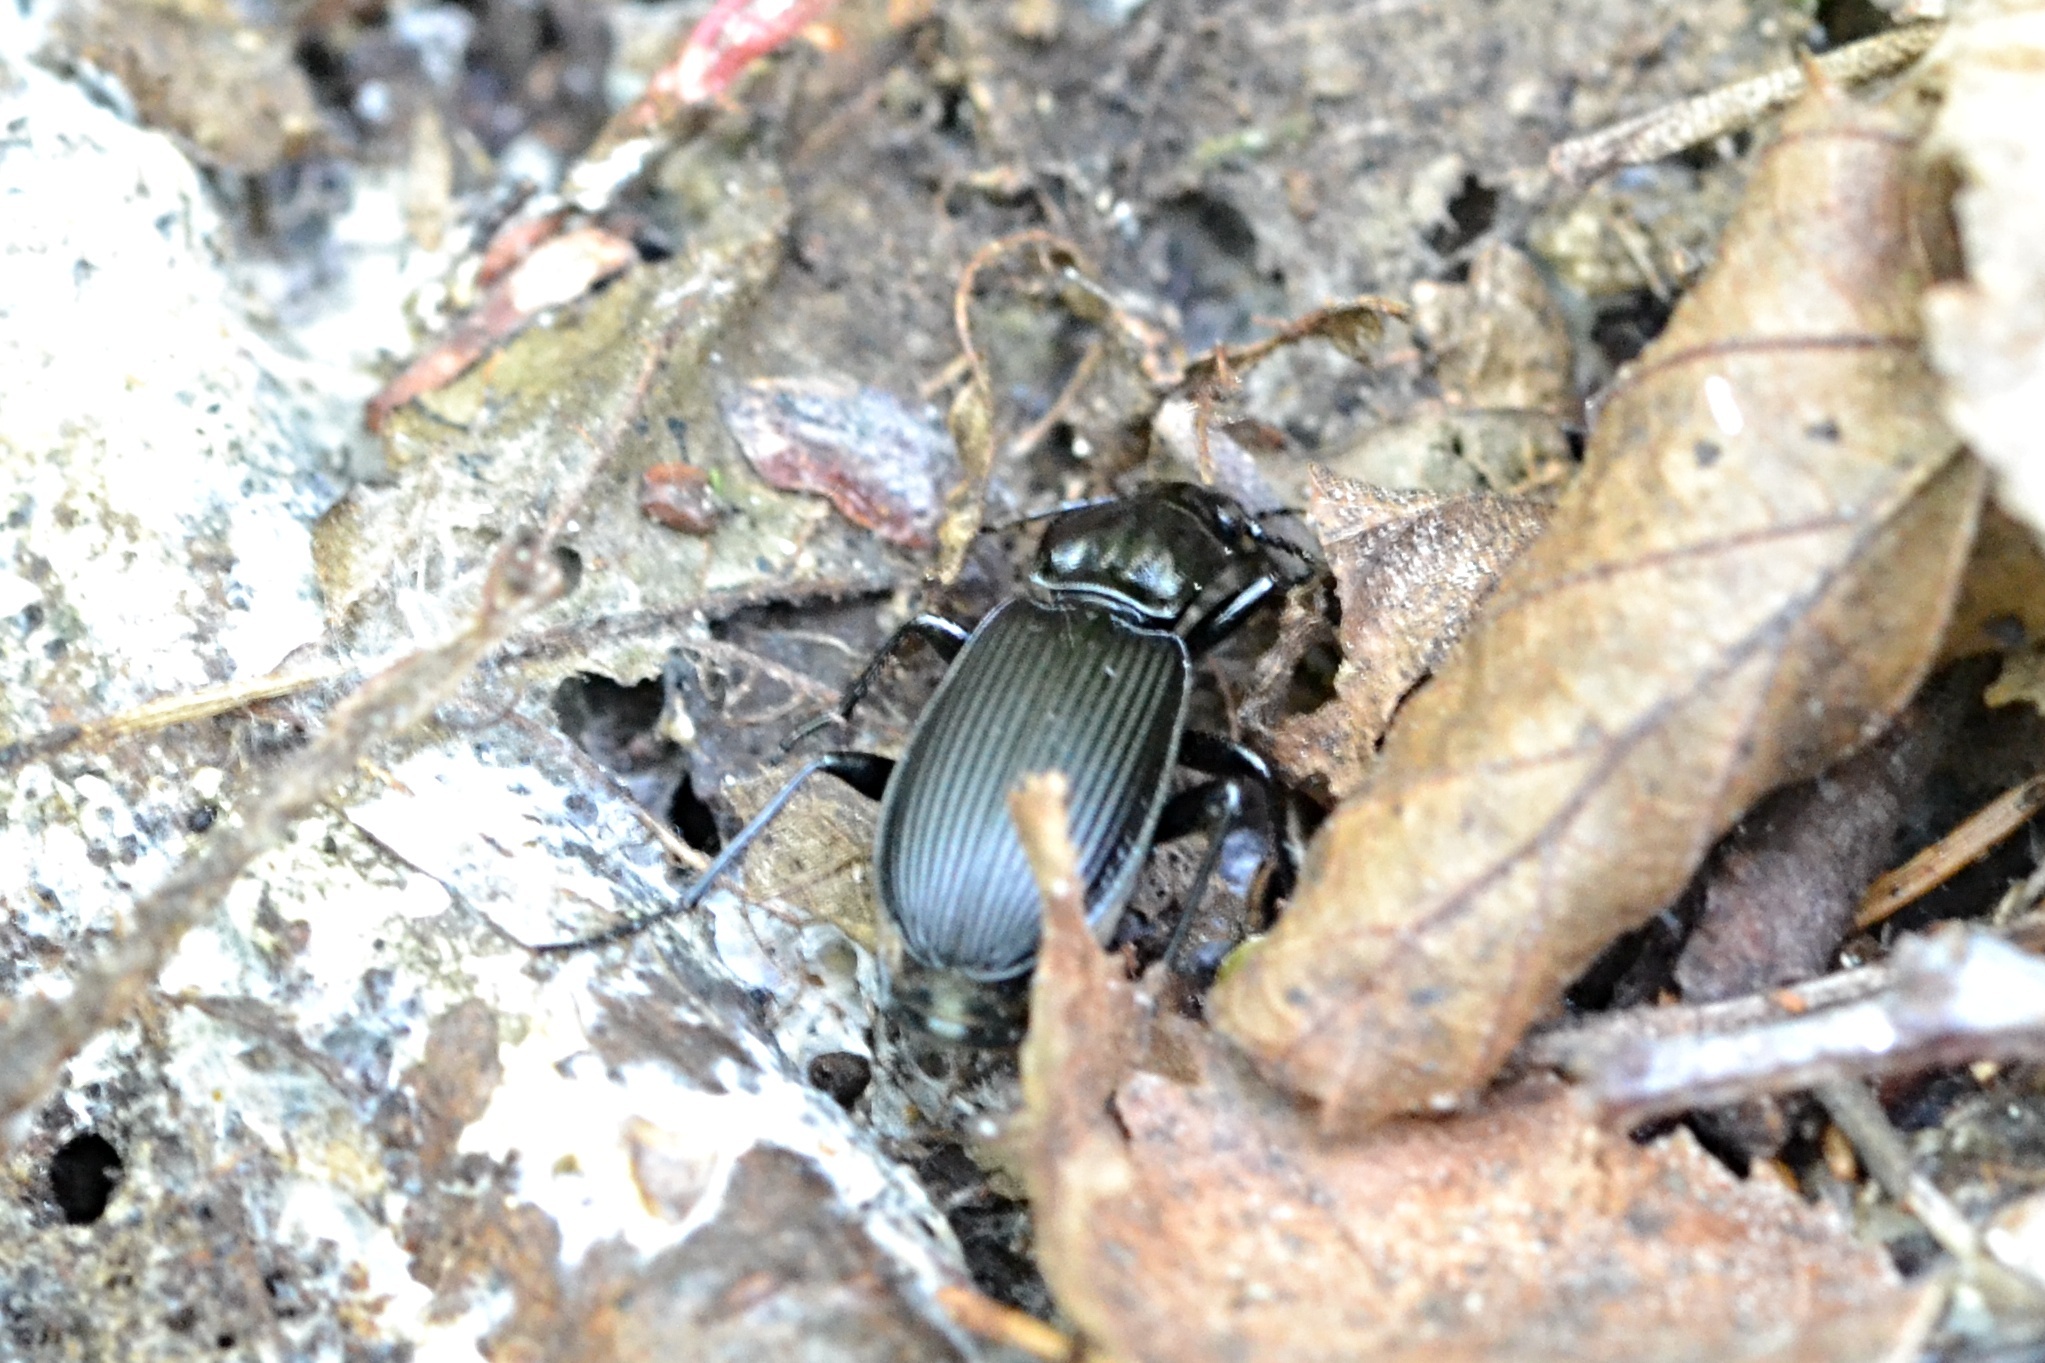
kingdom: Animalia
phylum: Arthropoda
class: Insecta
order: Coleoptera
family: Carabidae
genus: Pterostichus
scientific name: Pterostichus niger
